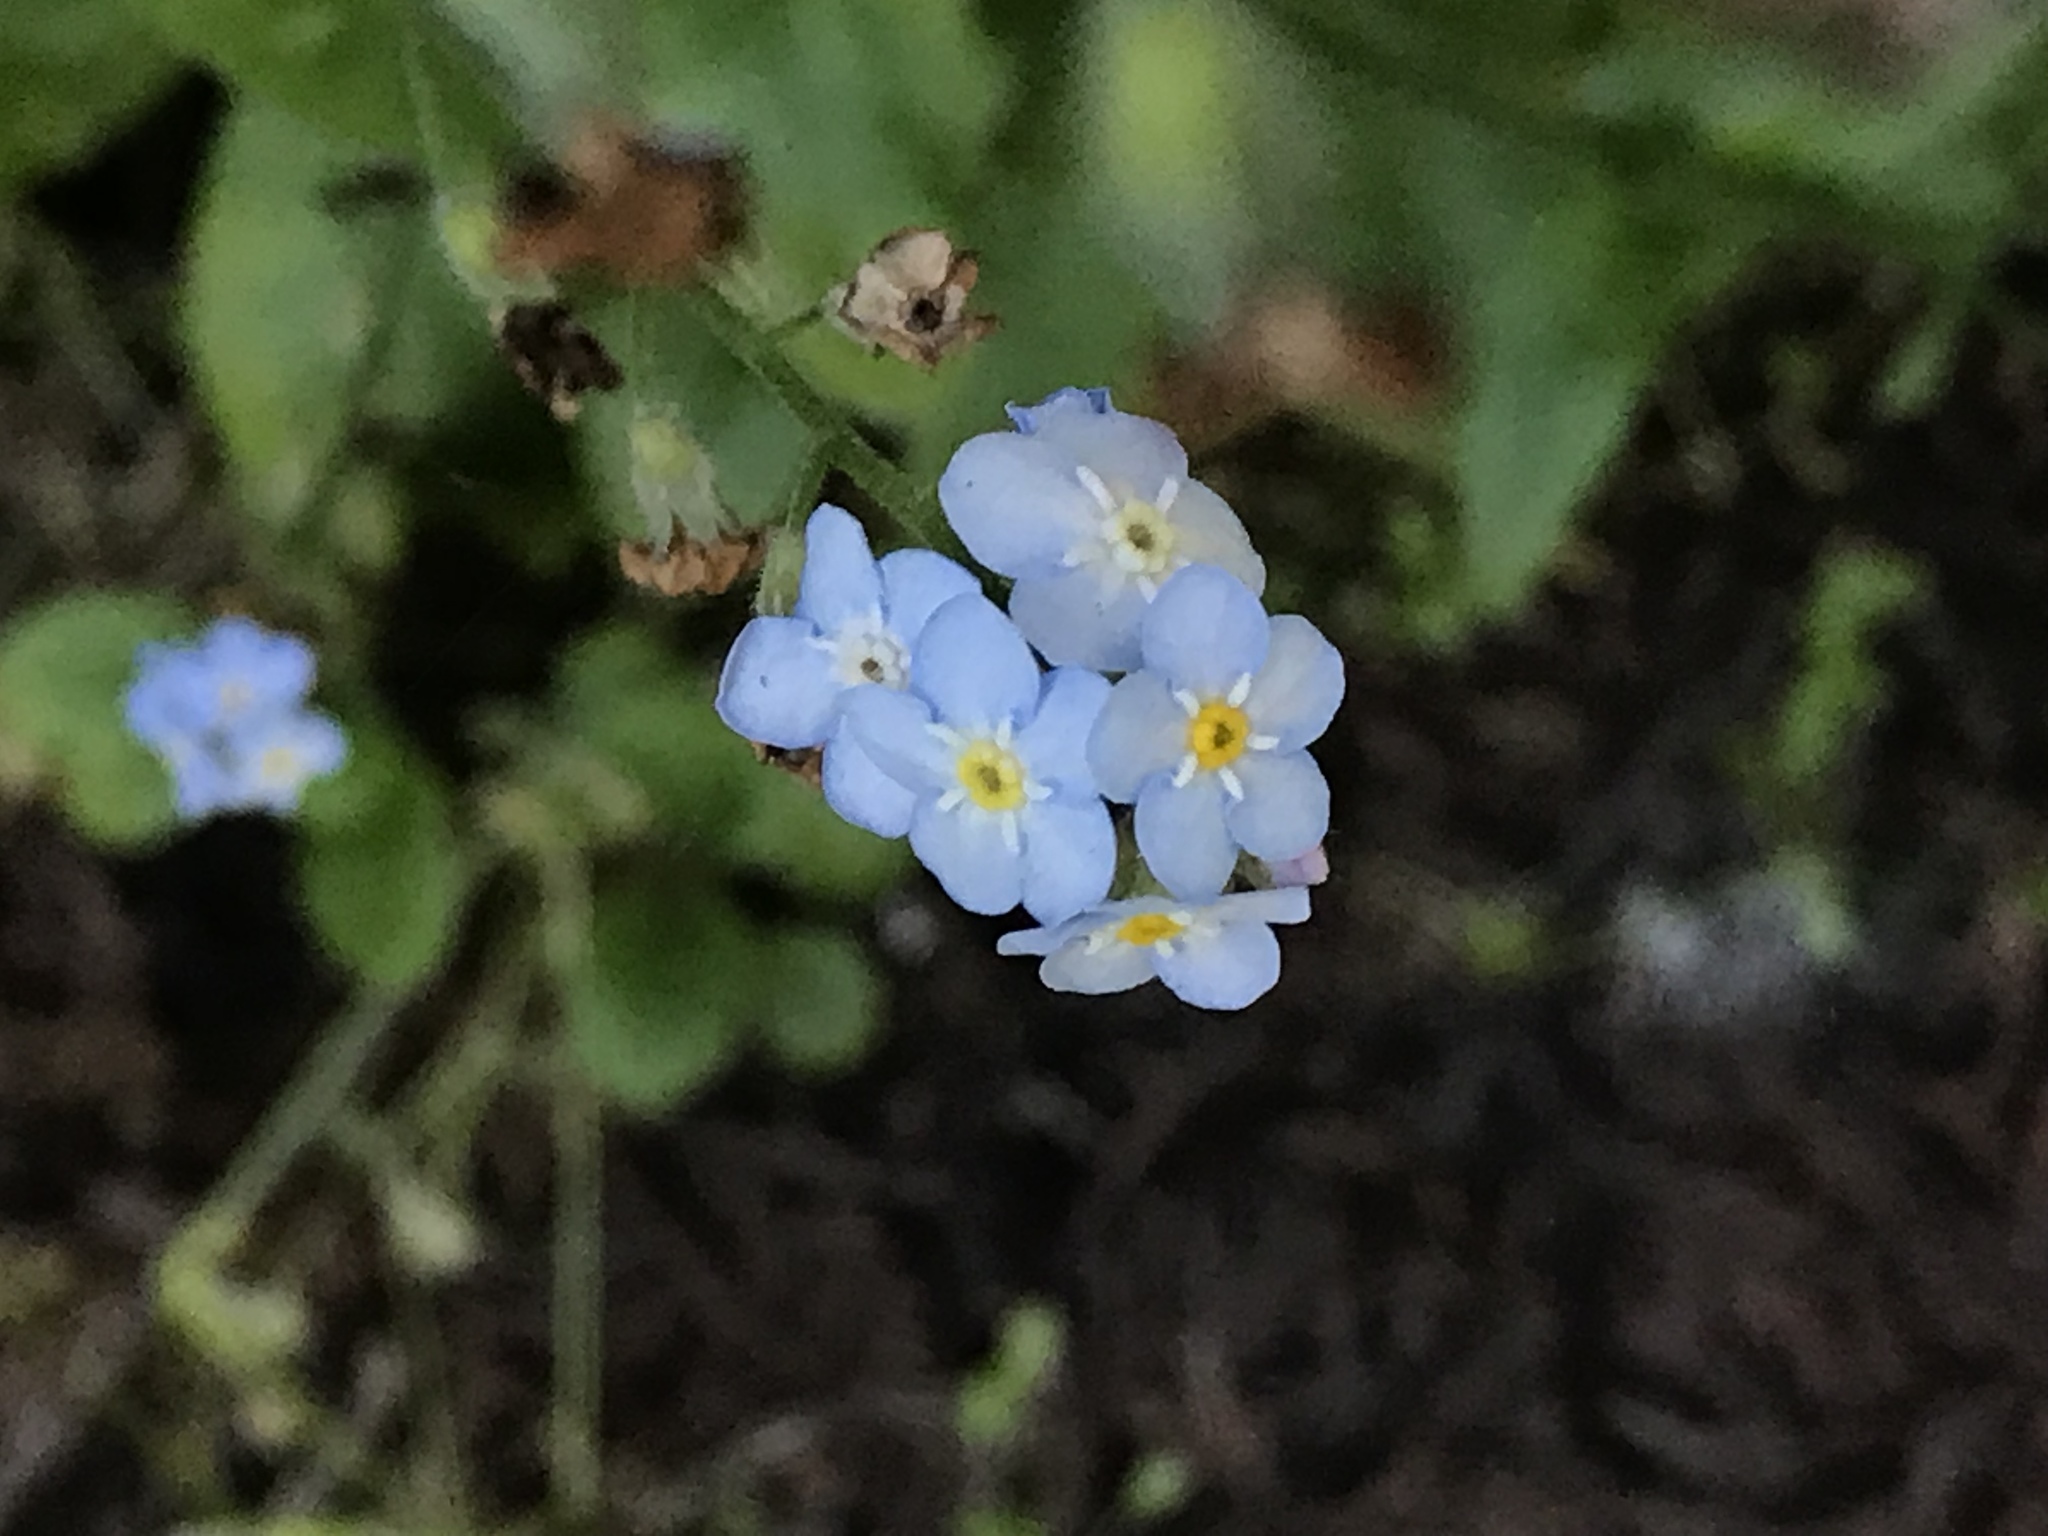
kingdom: Plantae
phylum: Tracheophyta
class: Magnoliopsida
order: Boraginales
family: Boraginaceae
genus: Myosotis
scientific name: Myosotis latifolia
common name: Broadleaf forget-me-not
